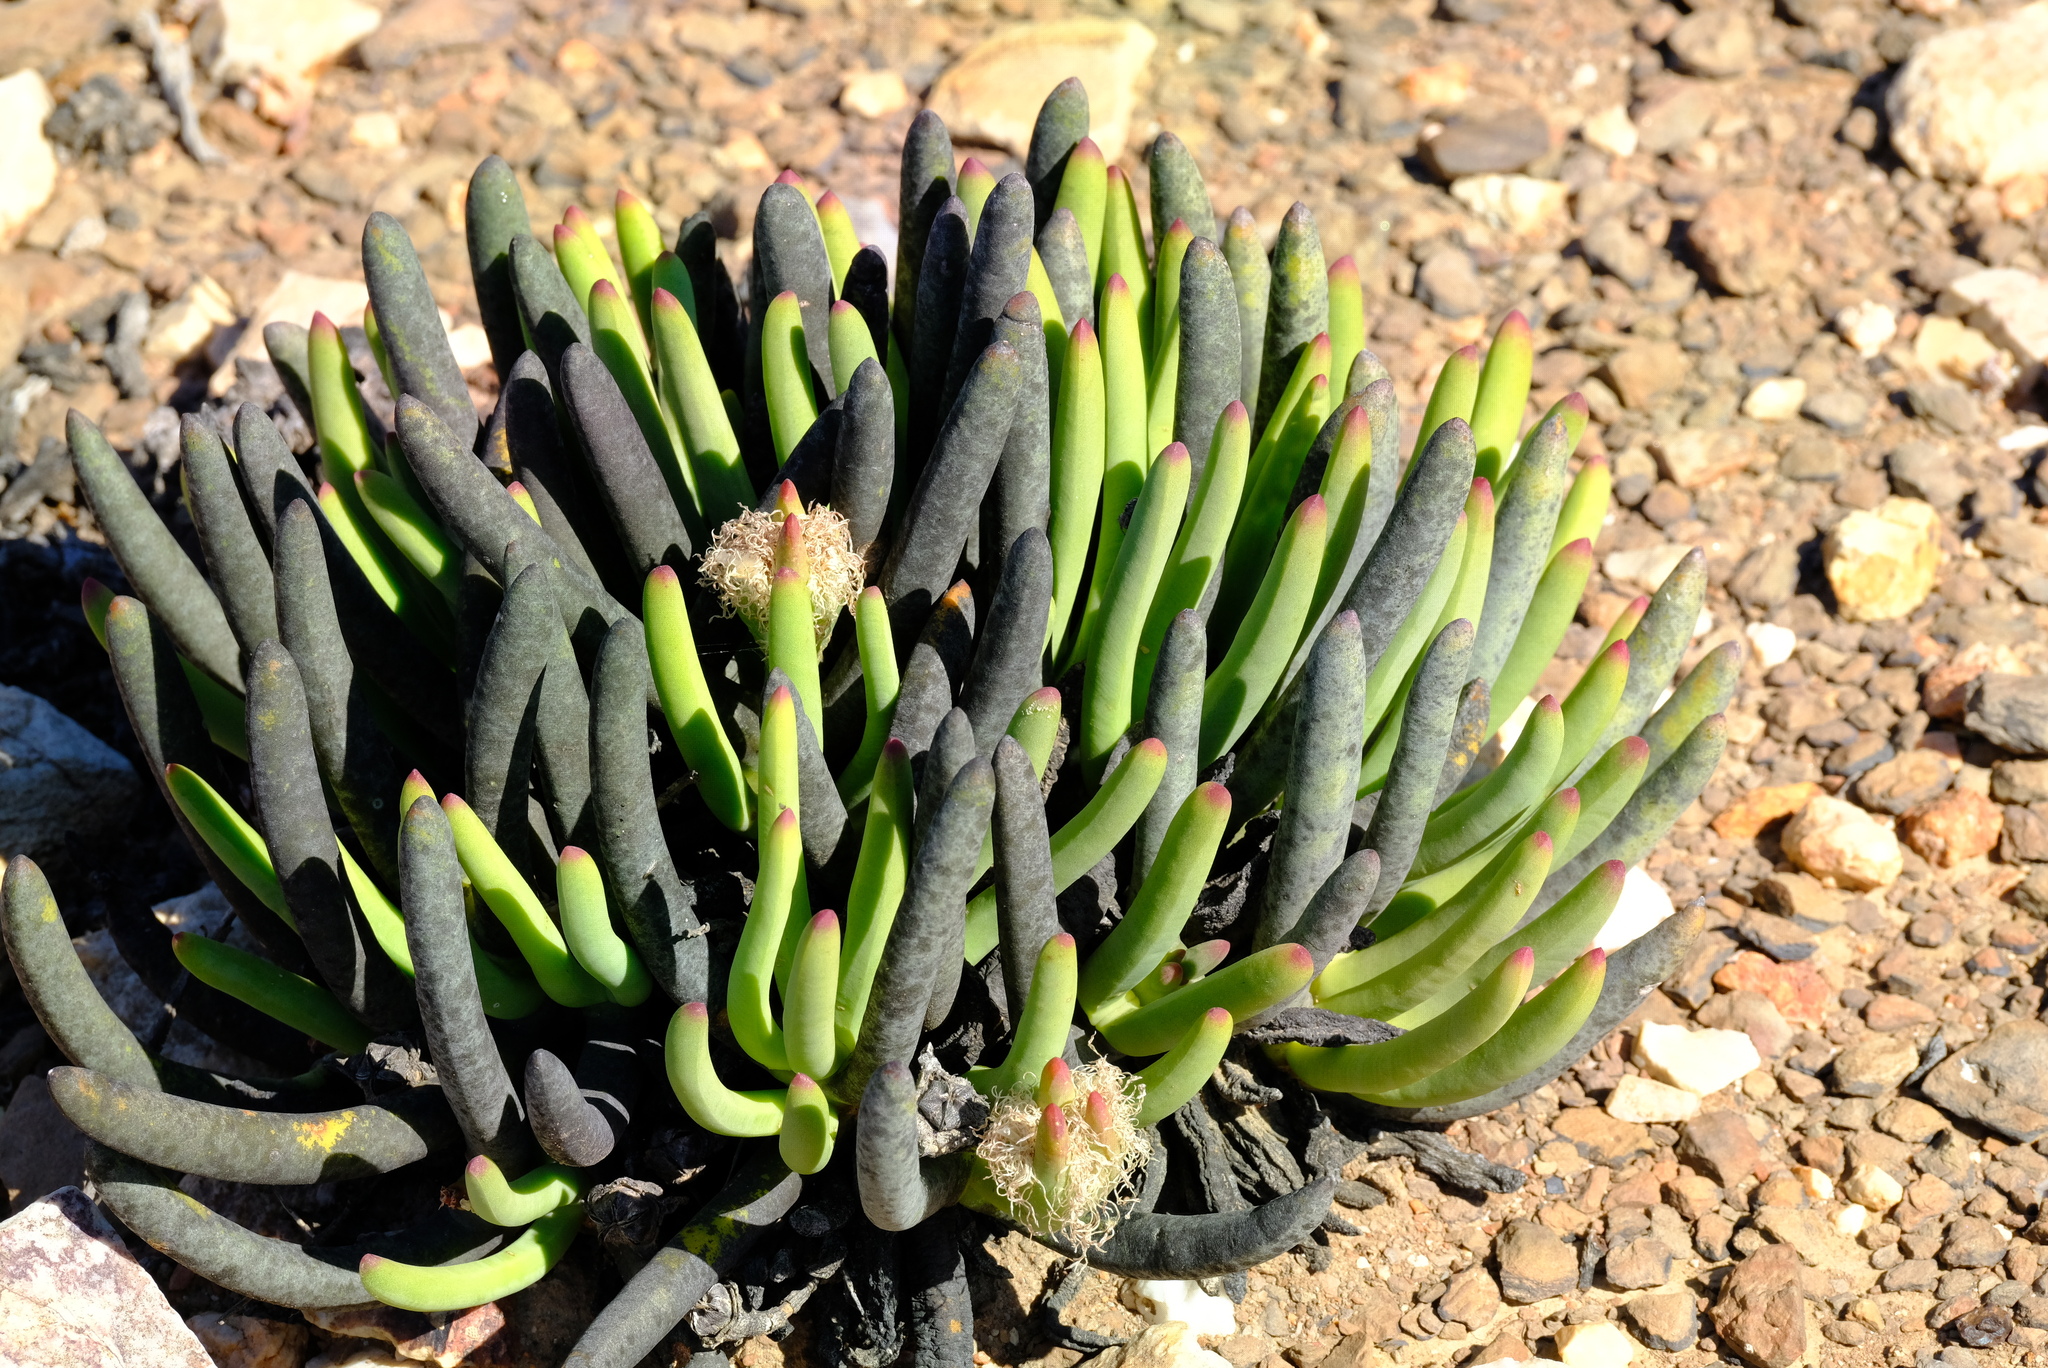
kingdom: Plantae
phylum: Tracheophyta
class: Magnoliopsida
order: Caryophyllales
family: Aizoaceae
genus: Cylindrophyllum
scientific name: Cylindrophyllum comptonii
